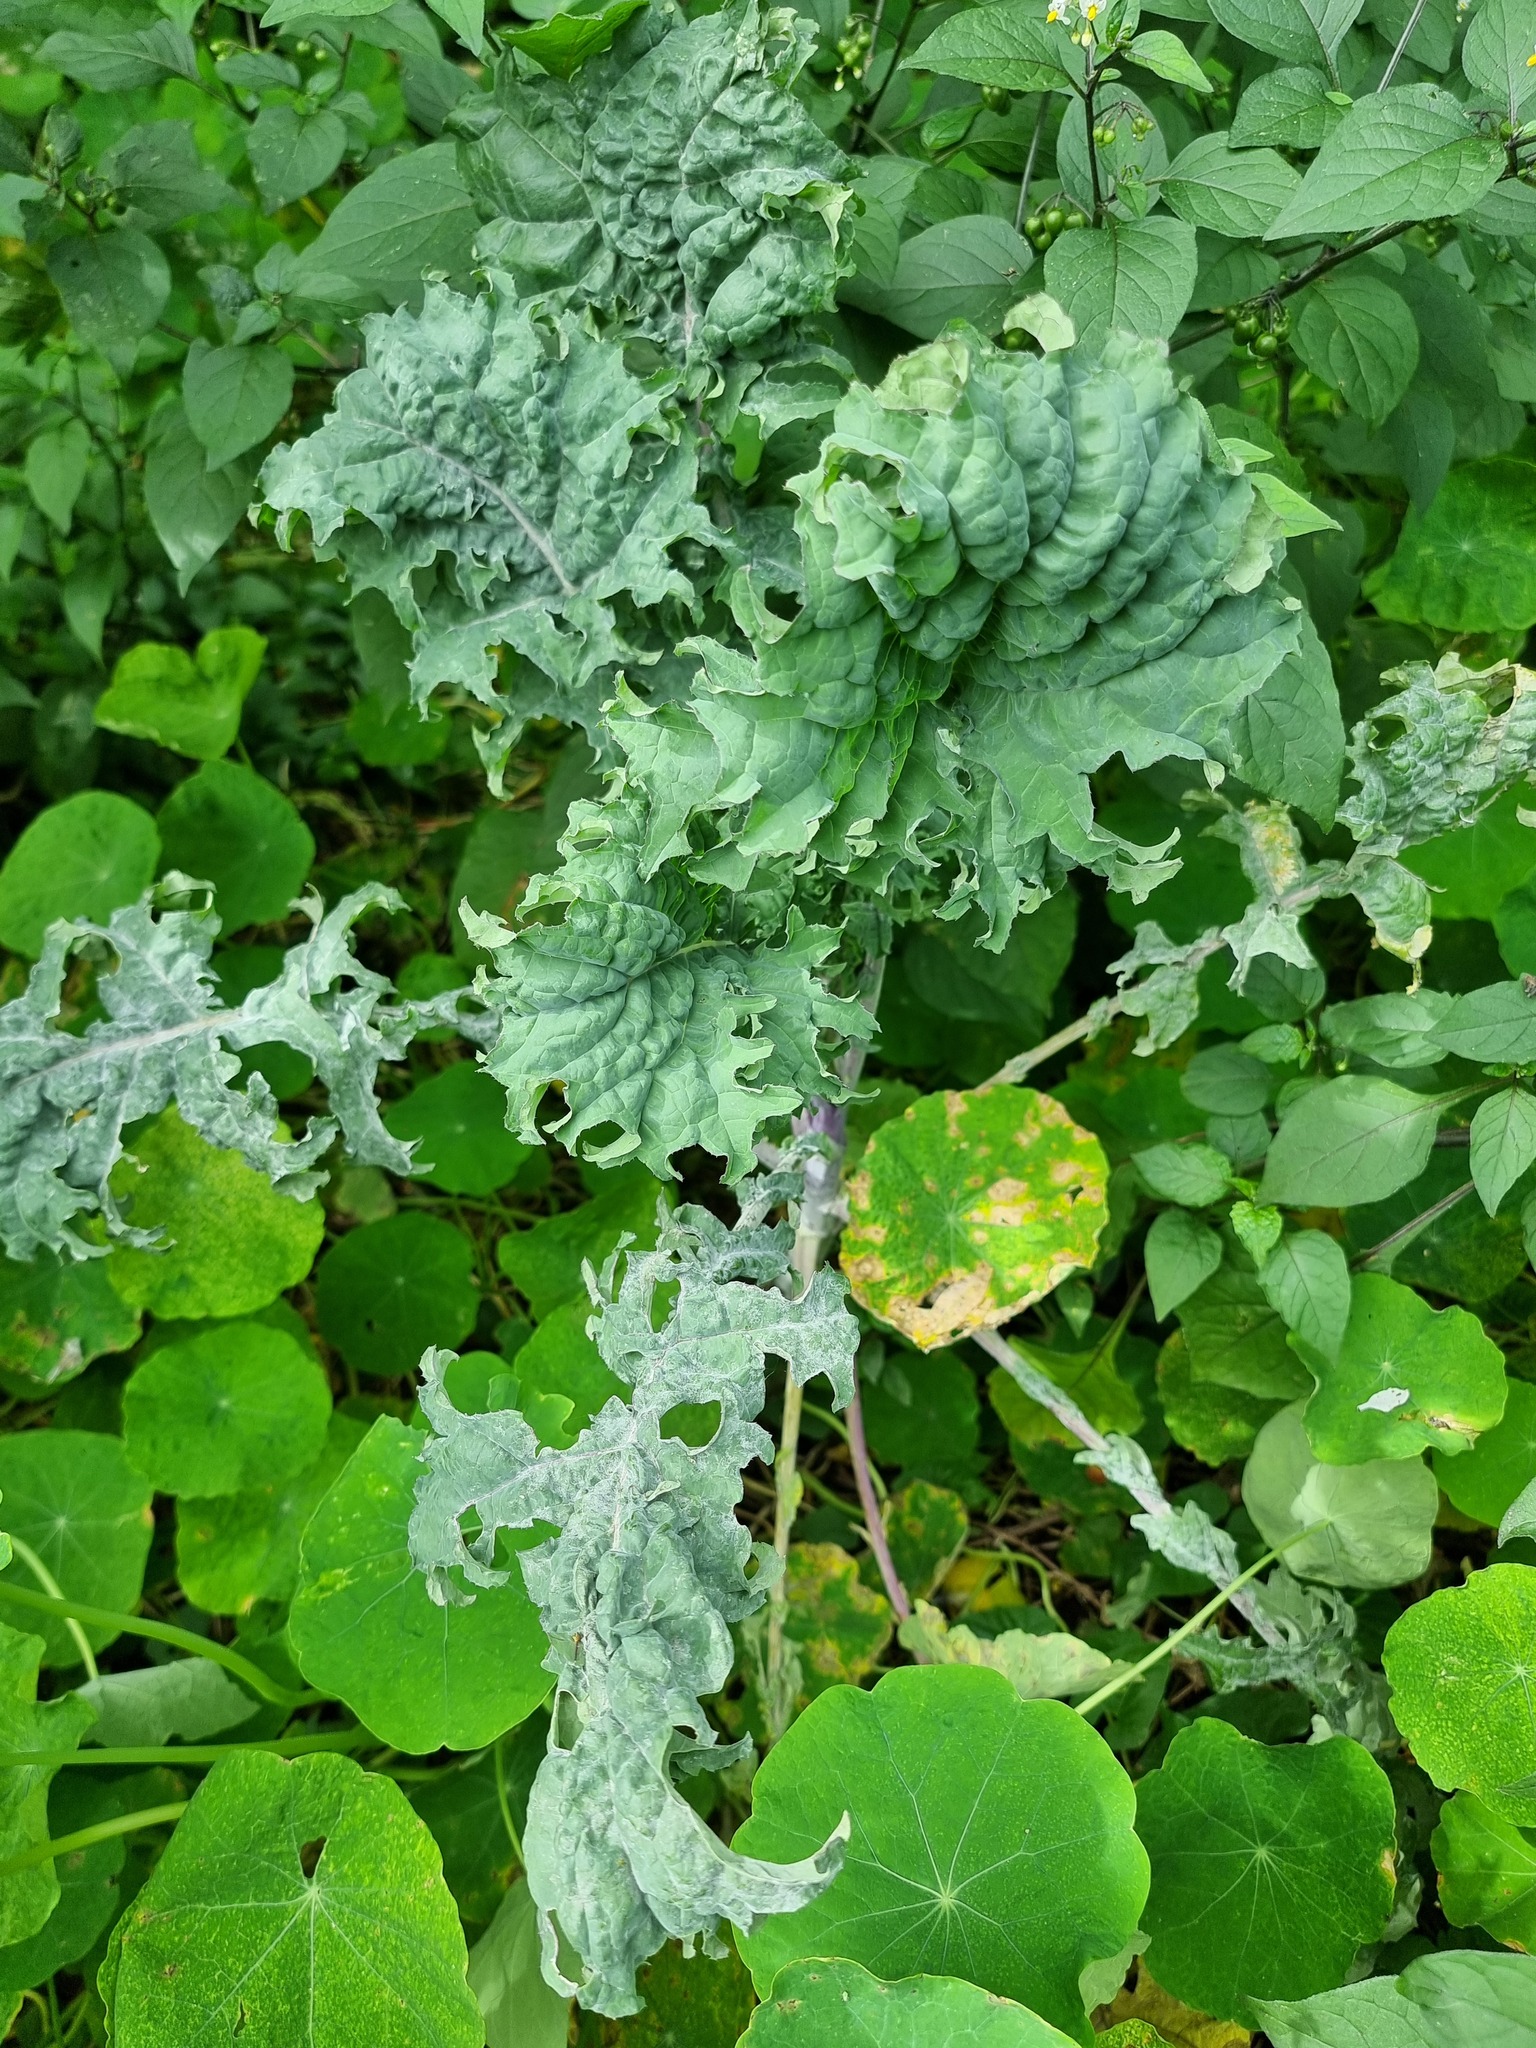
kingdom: Plantae
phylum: Tracheophyta
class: Magnoliopsida
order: Brassicales
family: Brassicaceae
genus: Brassica
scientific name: Brassica oleracea
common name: Cabbage
